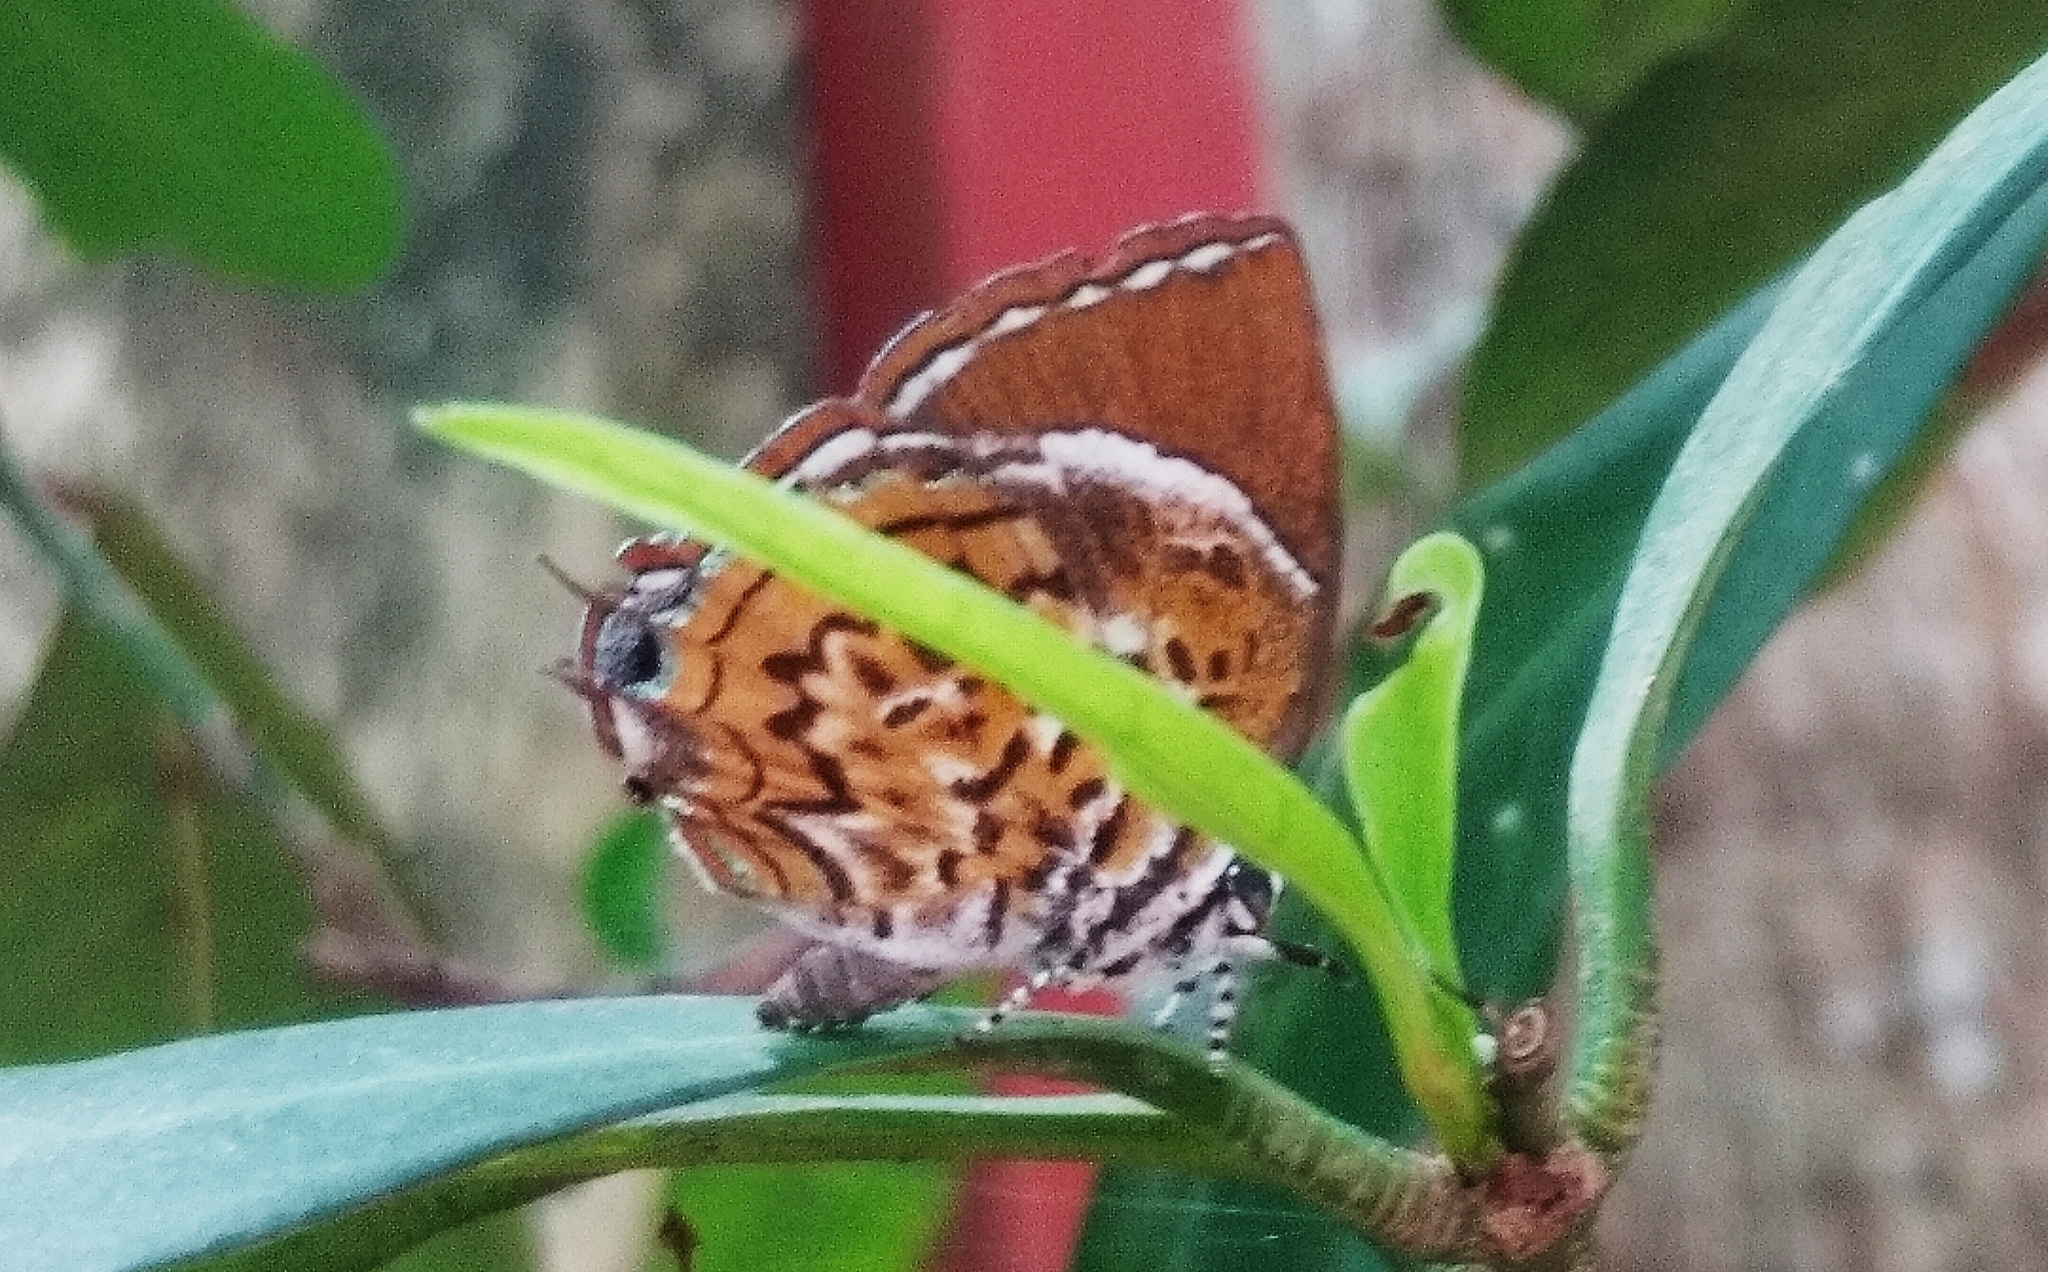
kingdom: Animalia
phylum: Arthropoda
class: Insecta
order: Lepidoptera
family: Lycaenidae
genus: Rathinda
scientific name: Rathinda amor
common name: Monkey puzzle
